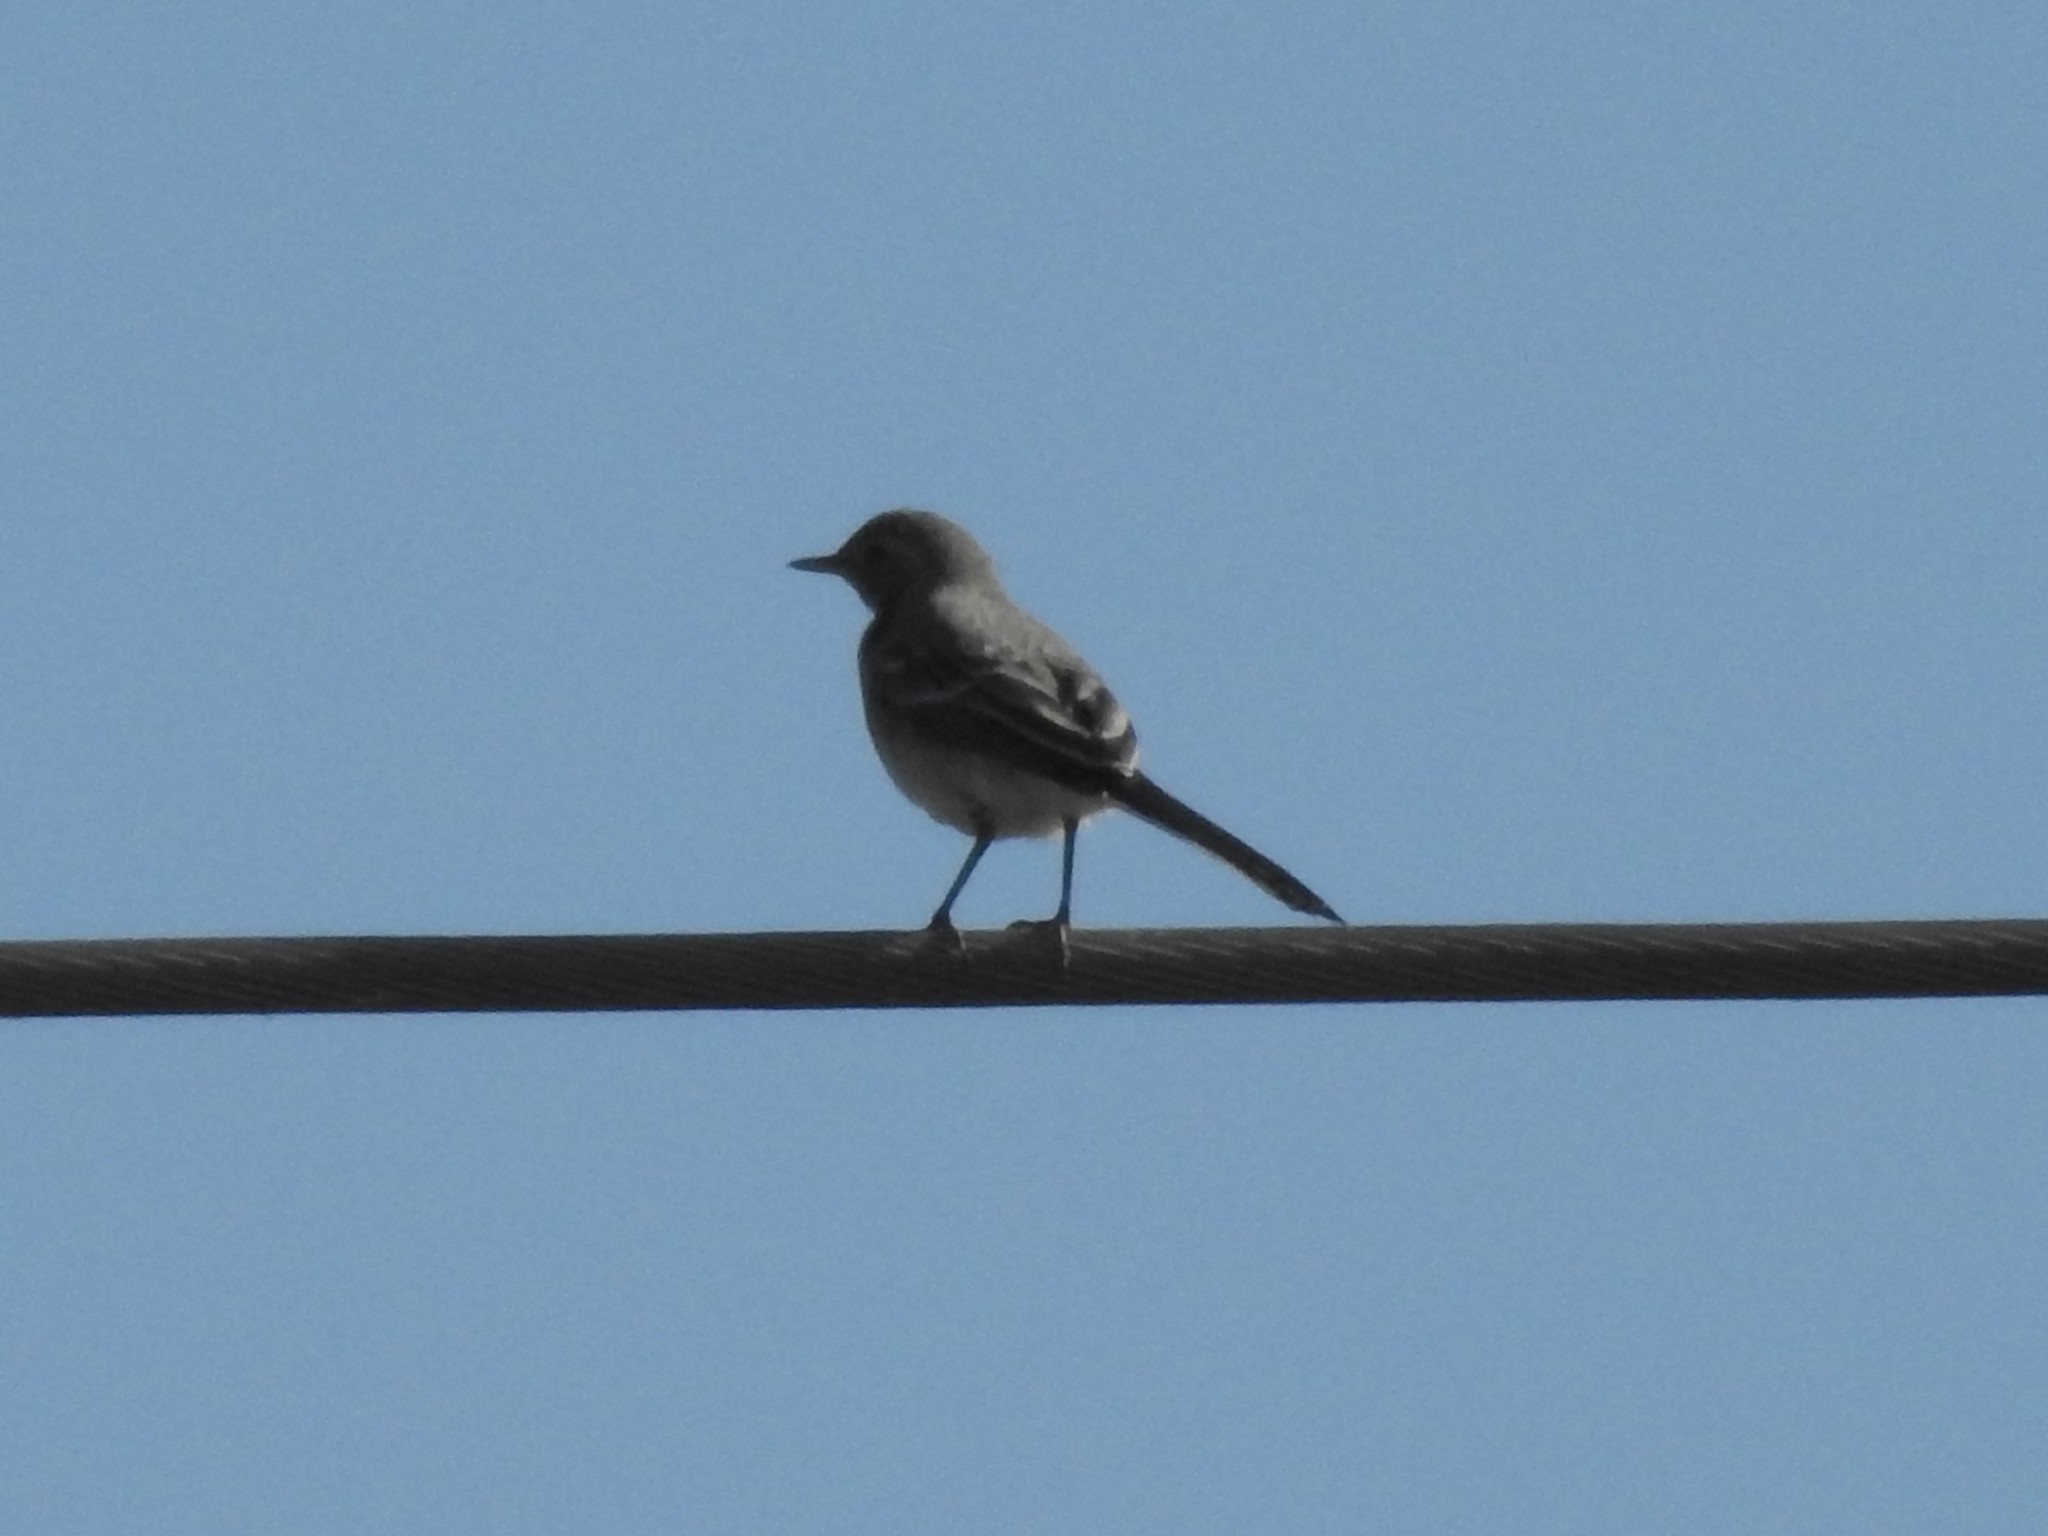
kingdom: Animalia
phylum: Chordata
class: Aves
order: Passeriformes
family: Motacillidae
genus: Motacilla
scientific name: Motacilla alba
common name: White wagtail
